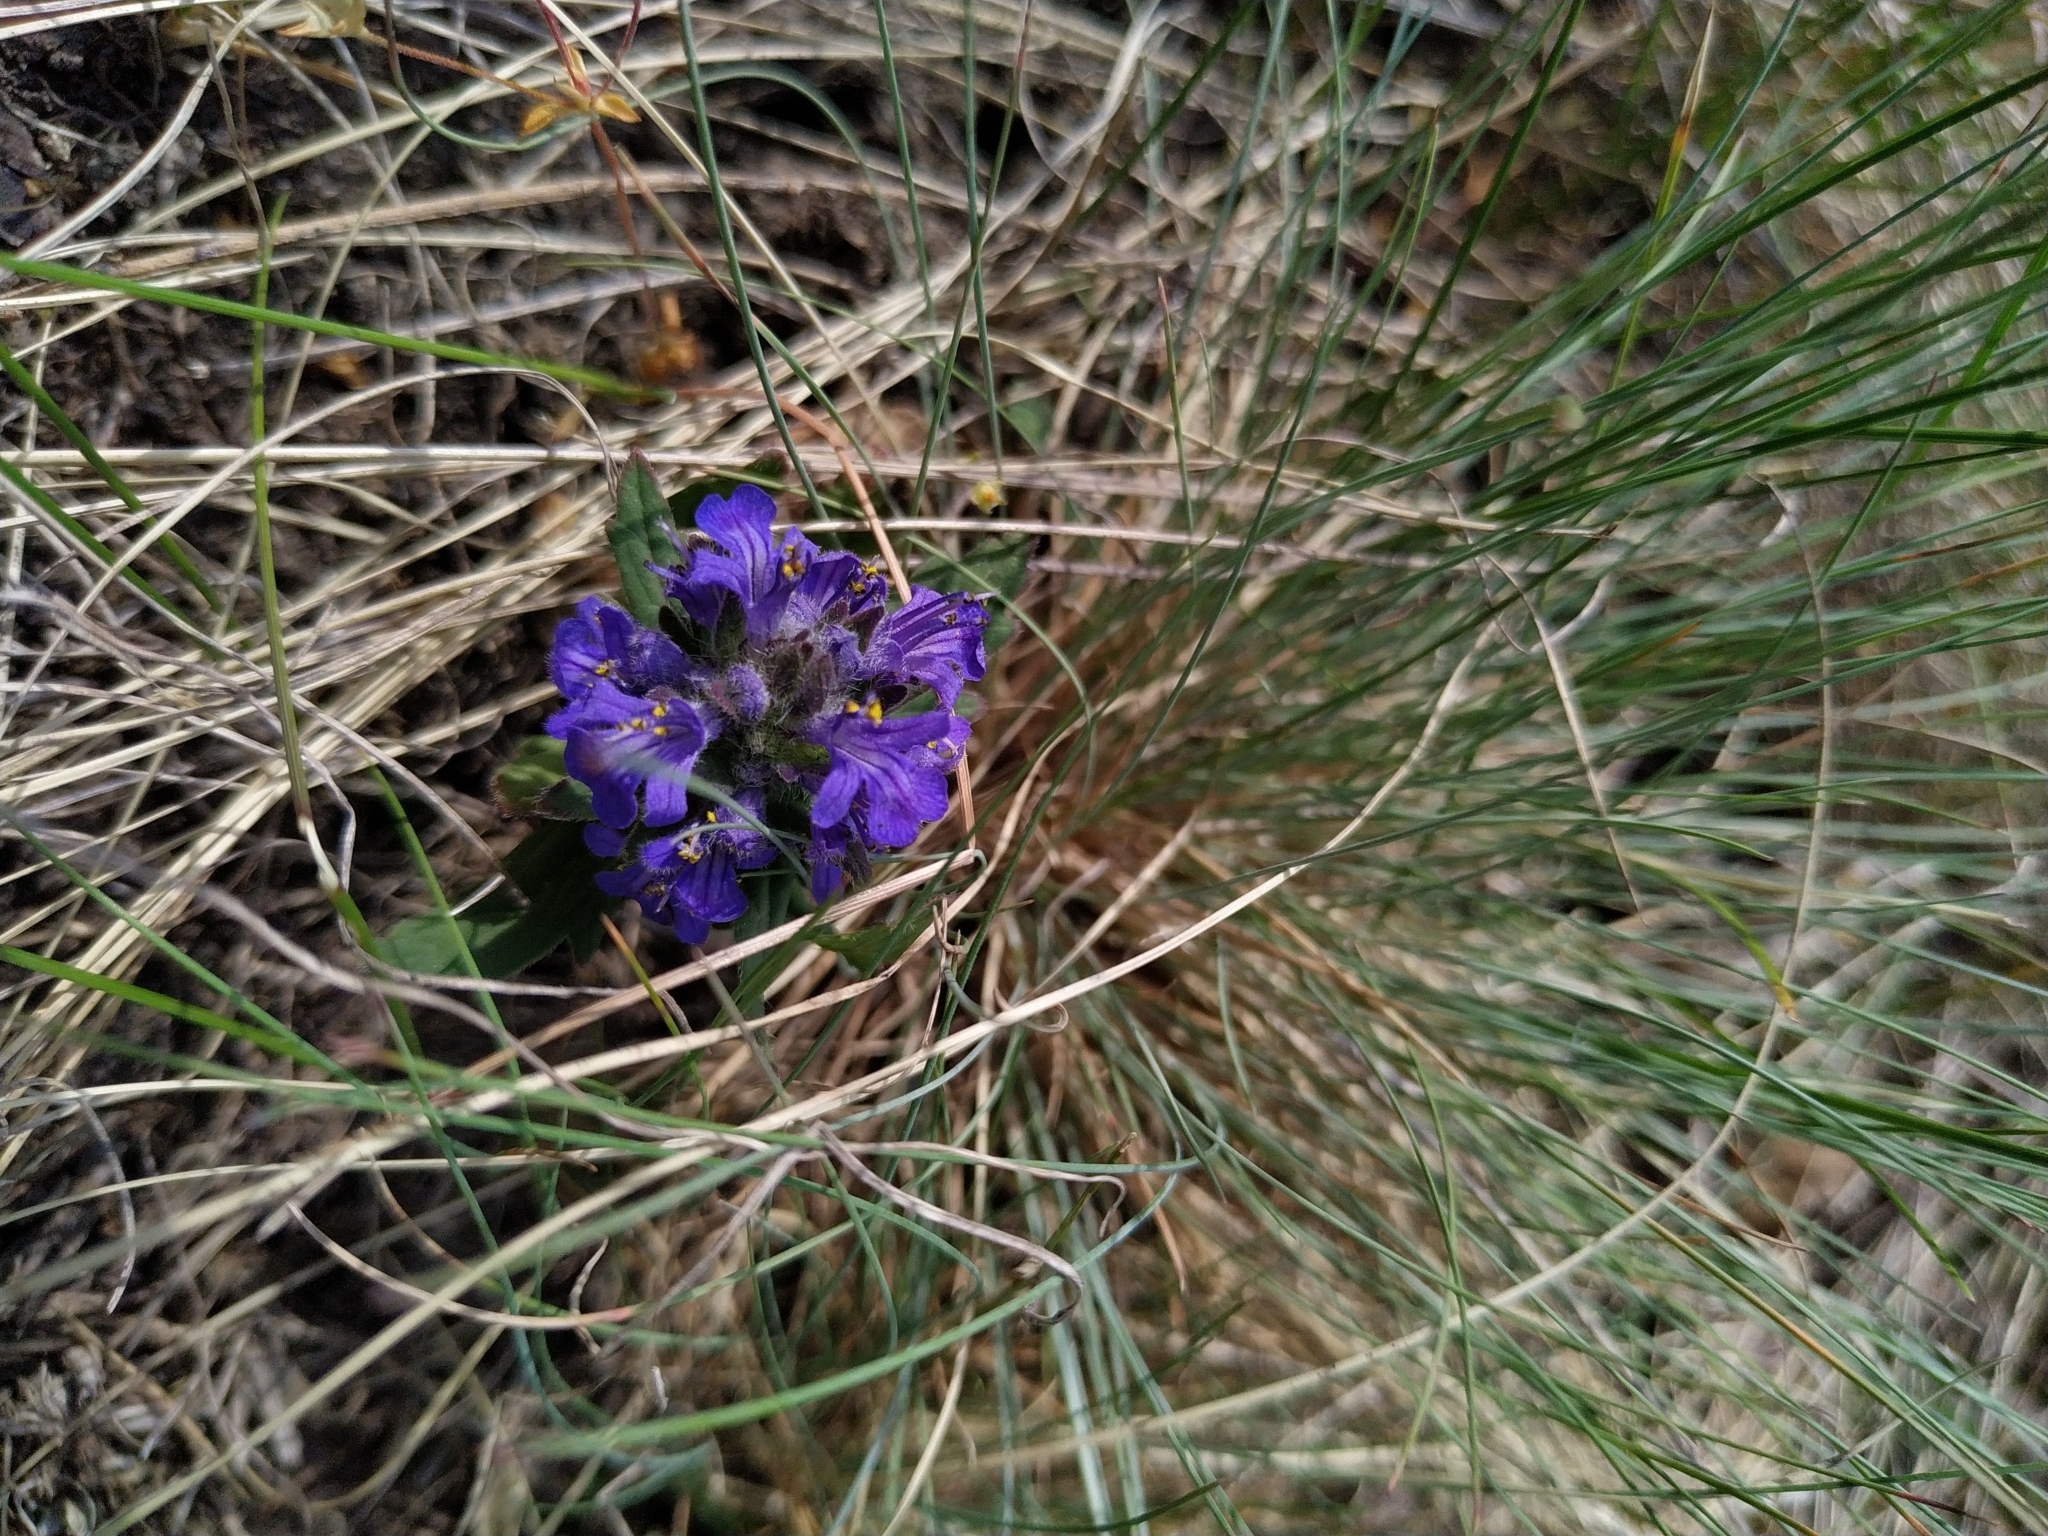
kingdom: Plantae
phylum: Tracheophyta
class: Magnoliopsida
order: Lamiales
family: Lamiaceae
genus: Ajuga
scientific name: Ajuga genevensis
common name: Blue bugle
